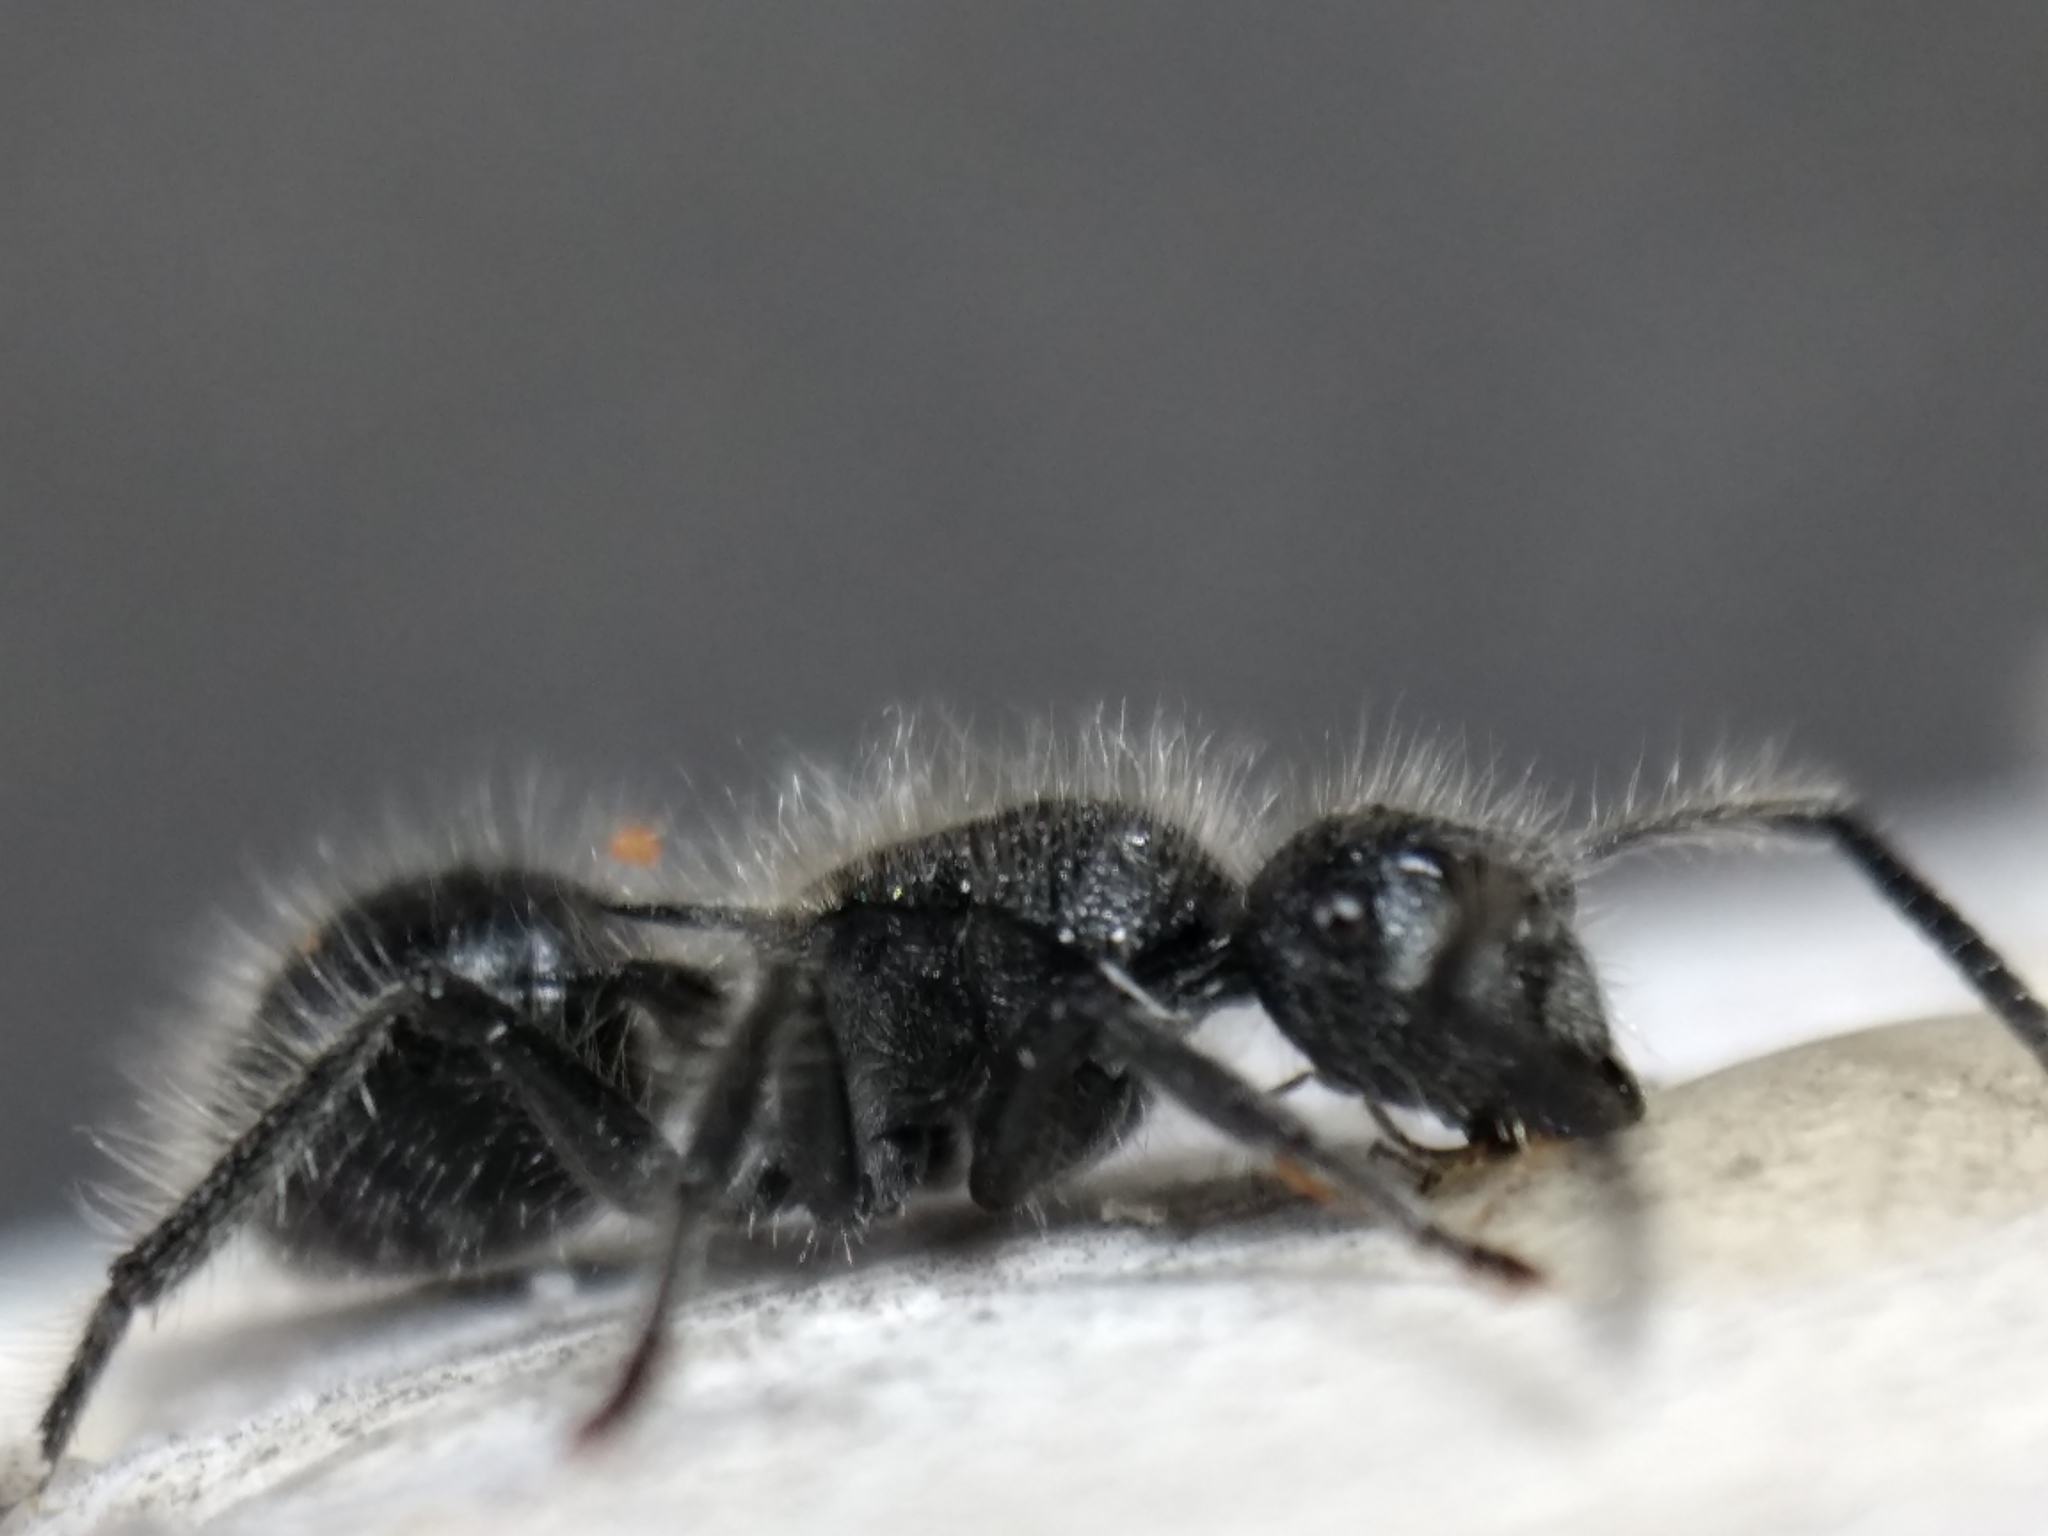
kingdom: Animalia
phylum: Arthropoda
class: Insecta
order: Hymenoptera
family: Formicidae
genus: Polyrhachis
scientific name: Polyrhachis punctiventris
